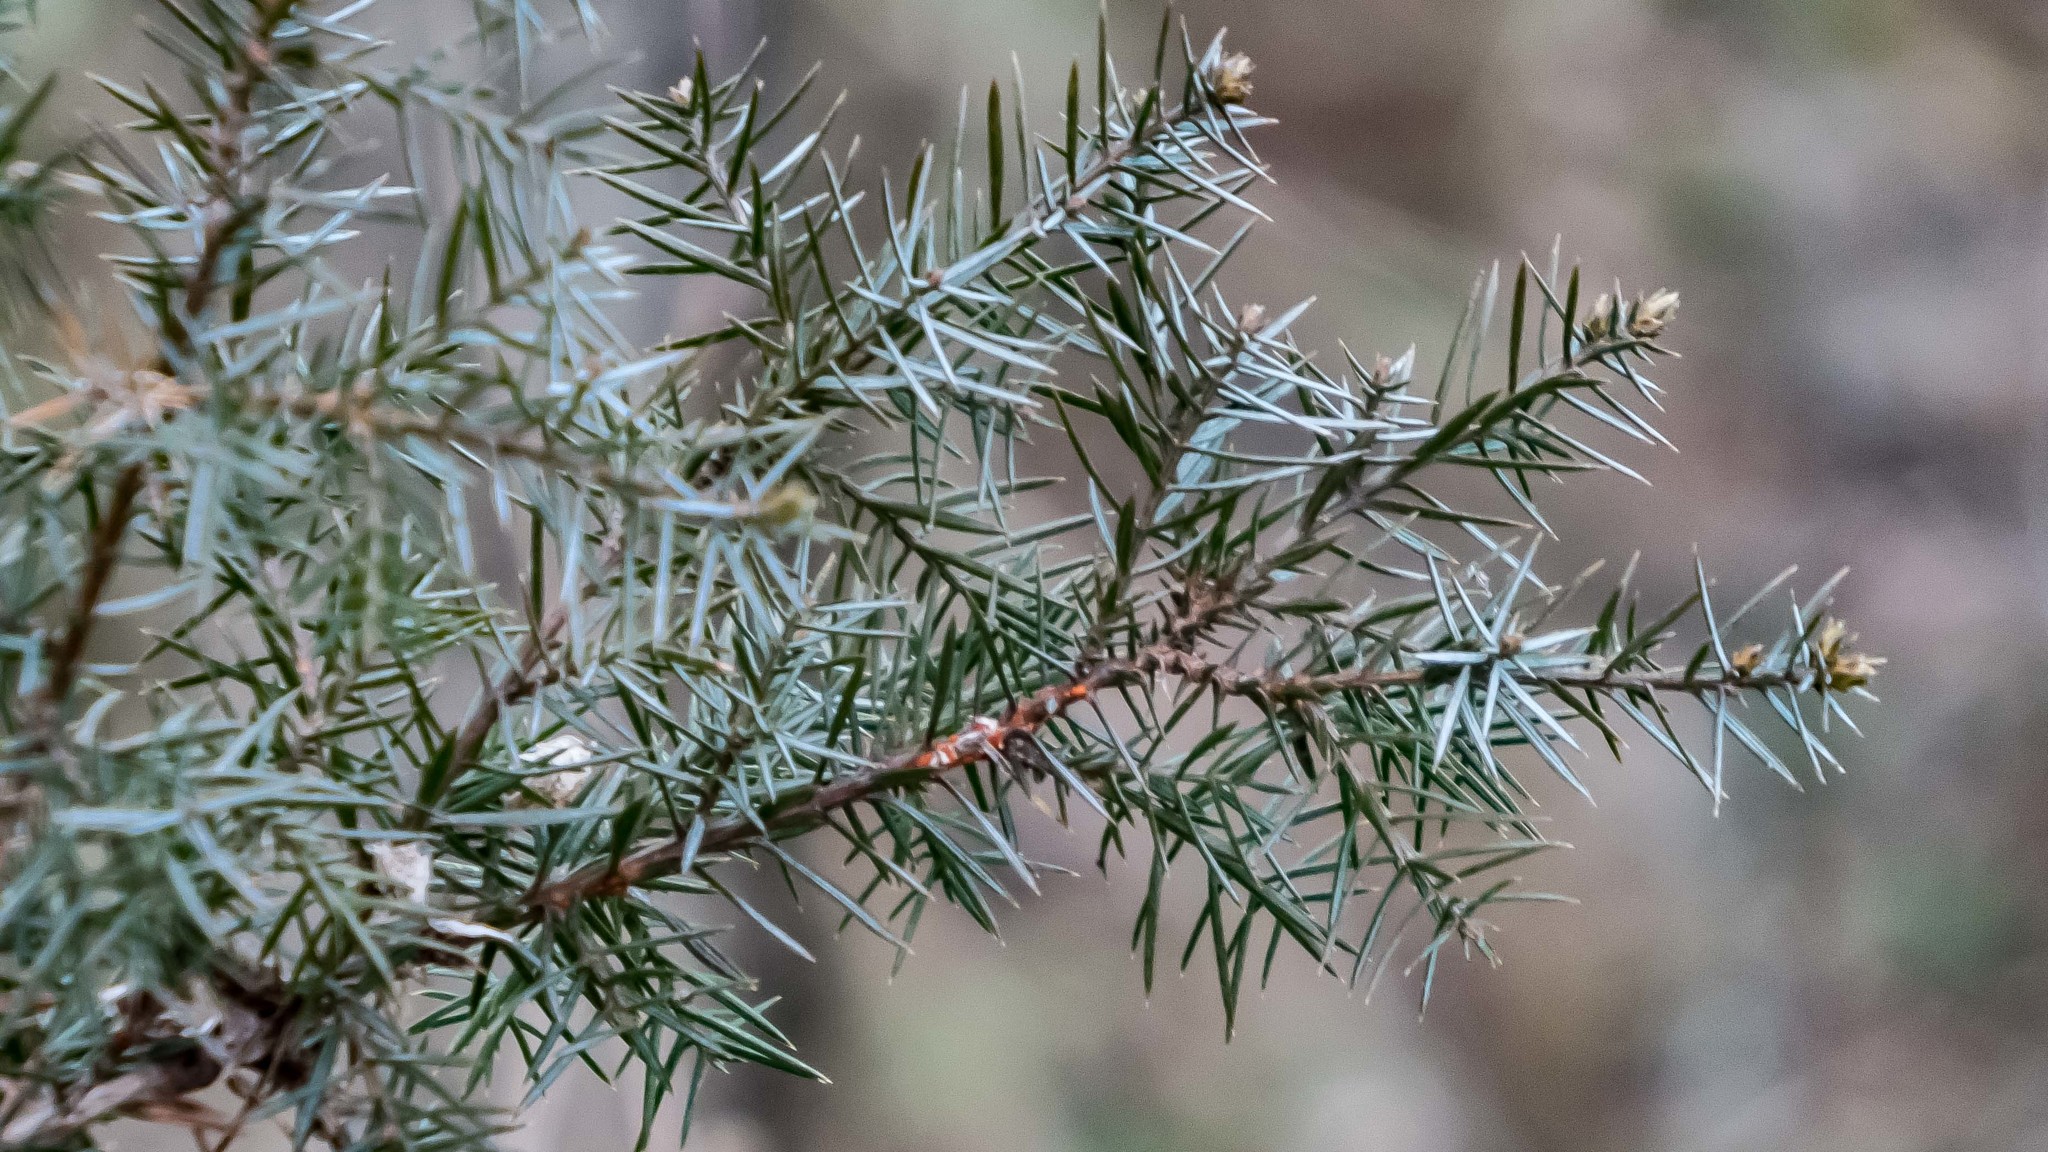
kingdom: Plantae
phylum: Tracheophyta
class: Pinopsida
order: Pinales
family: Cupressaceae
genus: Juniperus
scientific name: Juniperus communis
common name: Common juniper
